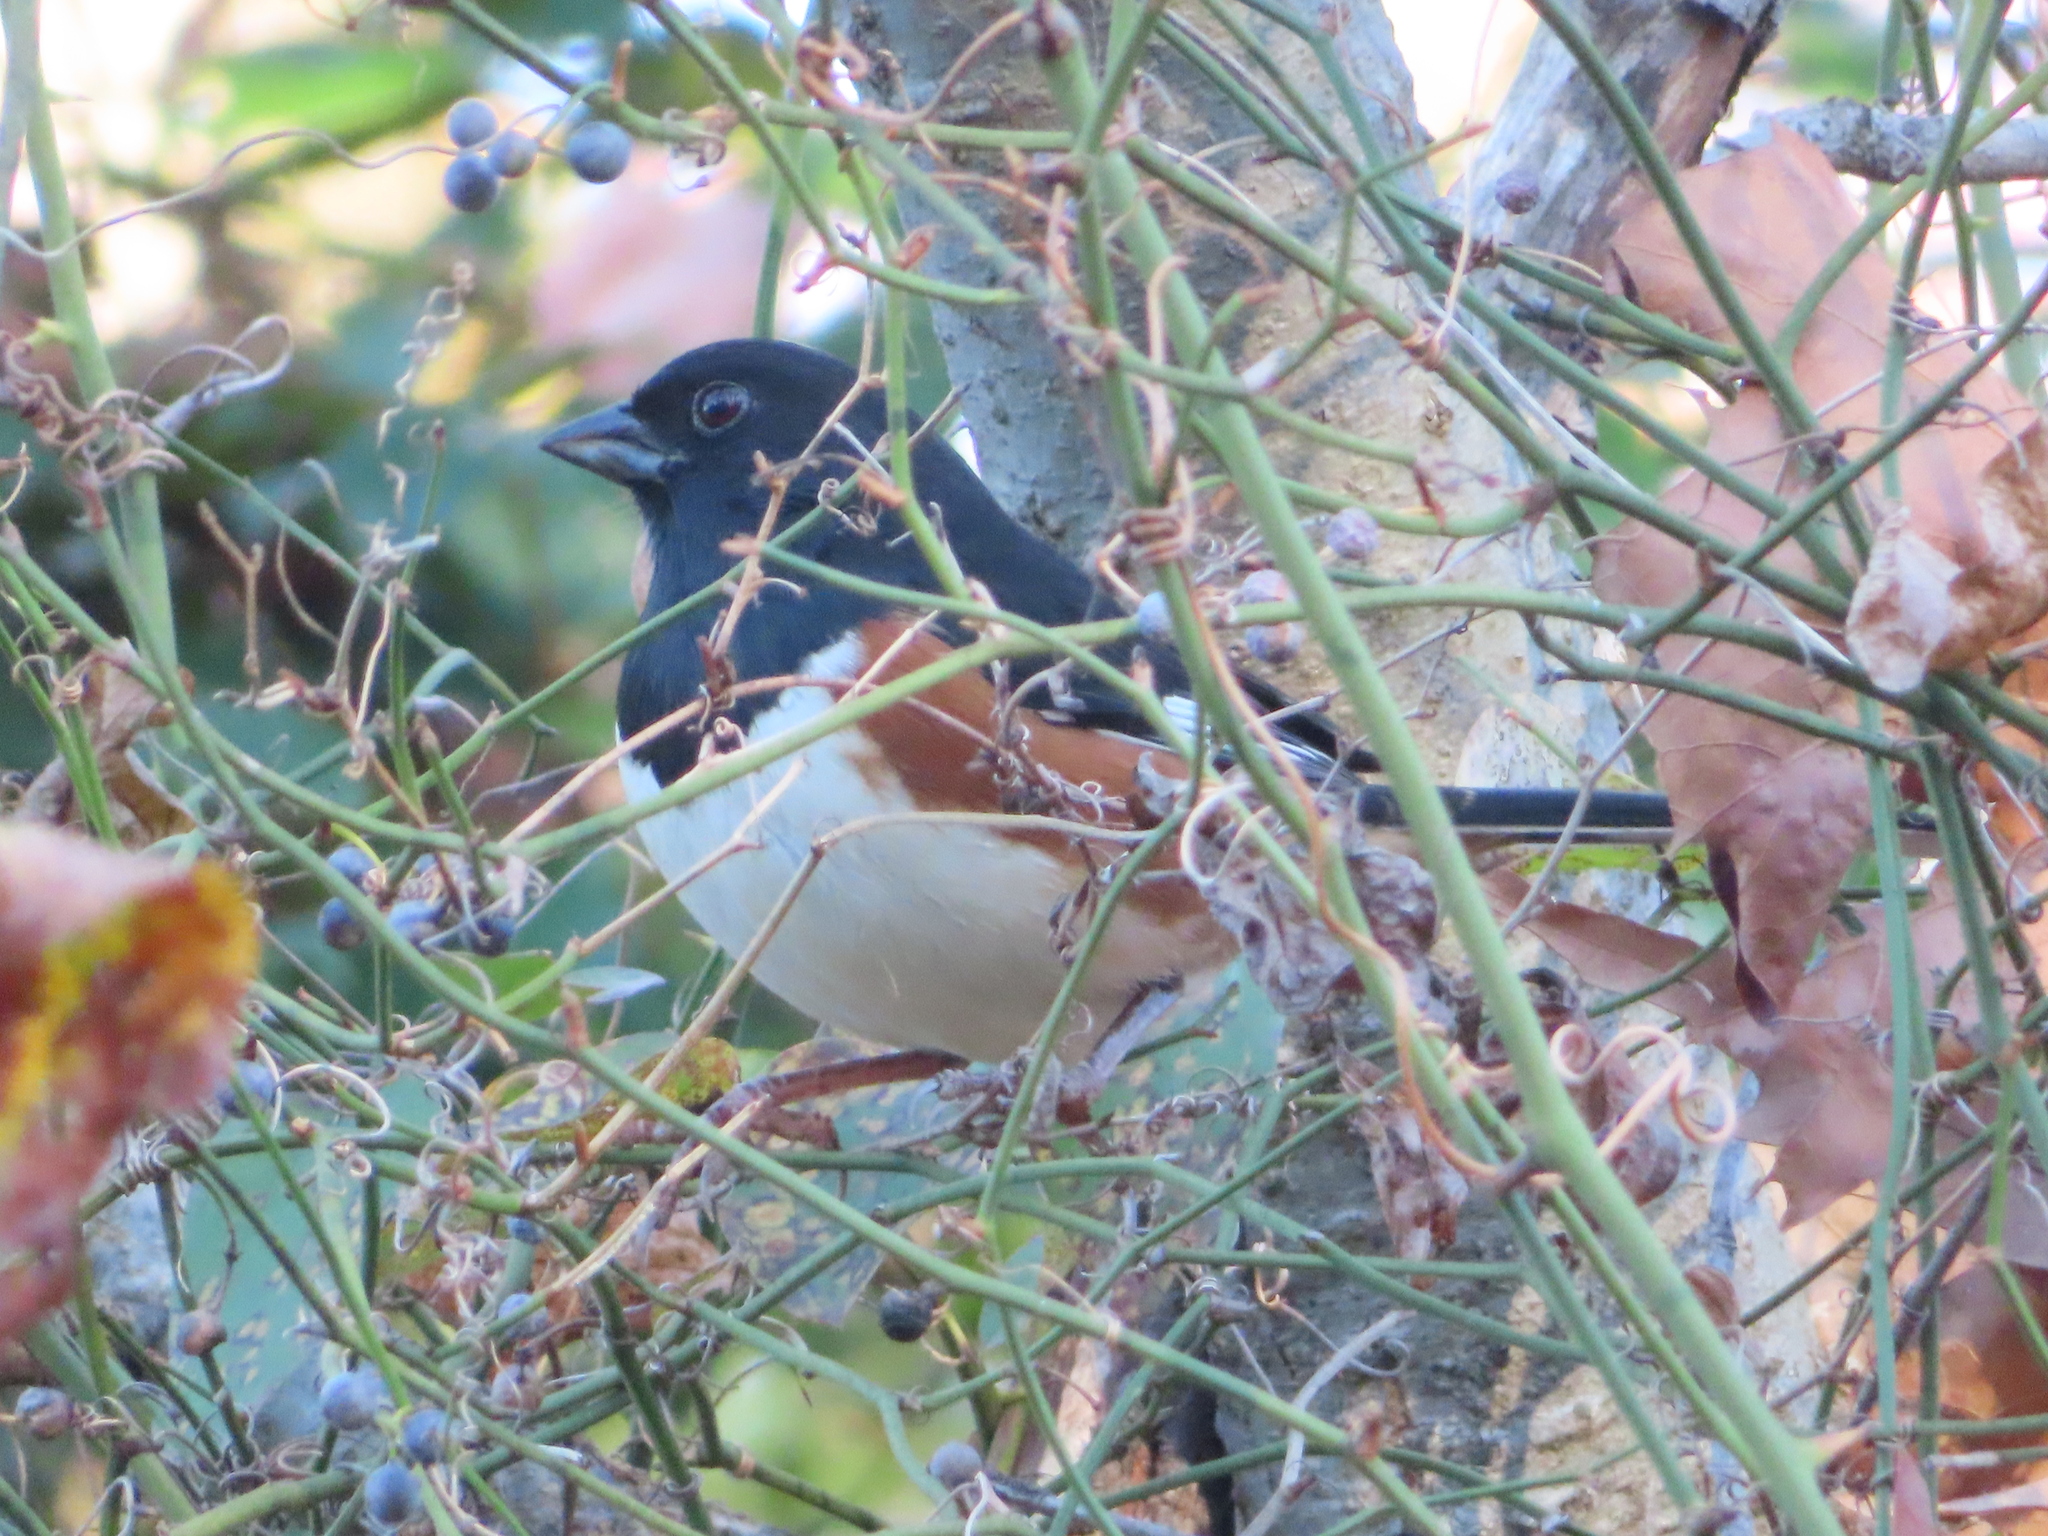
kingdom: Animalia
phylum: Chordata
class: Aves
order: Passeriformes
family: Passerellidae
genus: Pipilo
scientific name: Pipilo erythrophthalmus
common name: Eastern towhee
